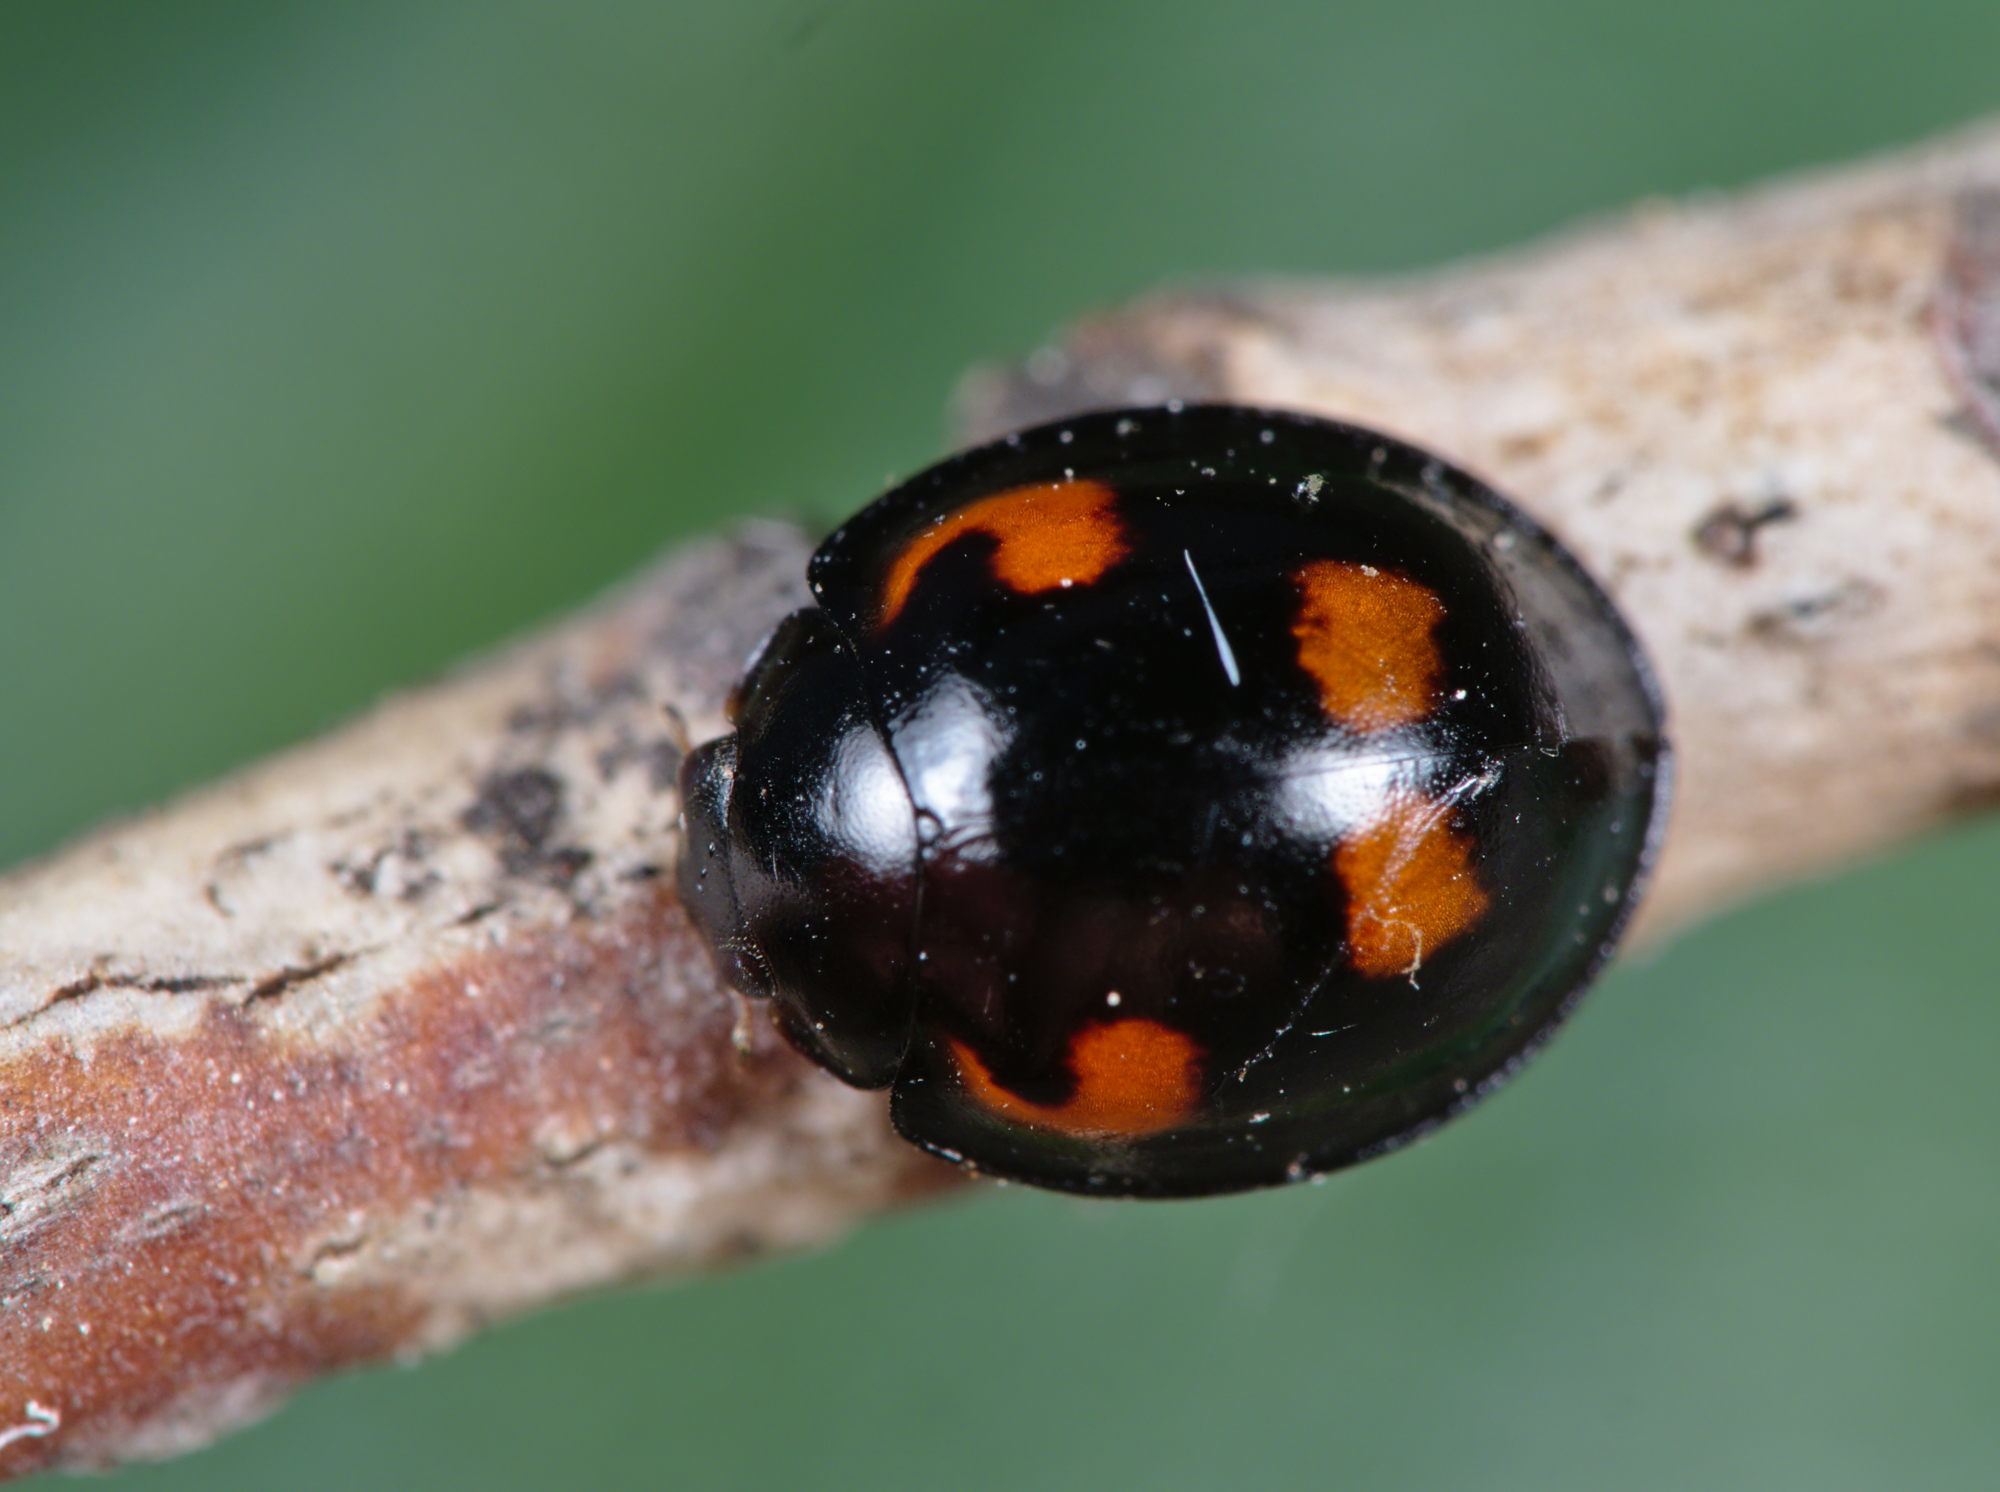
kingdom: Animalia
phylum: Arthropoda
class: Insecta
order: Coleoptera
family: Coccinellidae
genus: Brumus
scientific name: Brumus quadripustulatus
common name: Ladybird beetle
